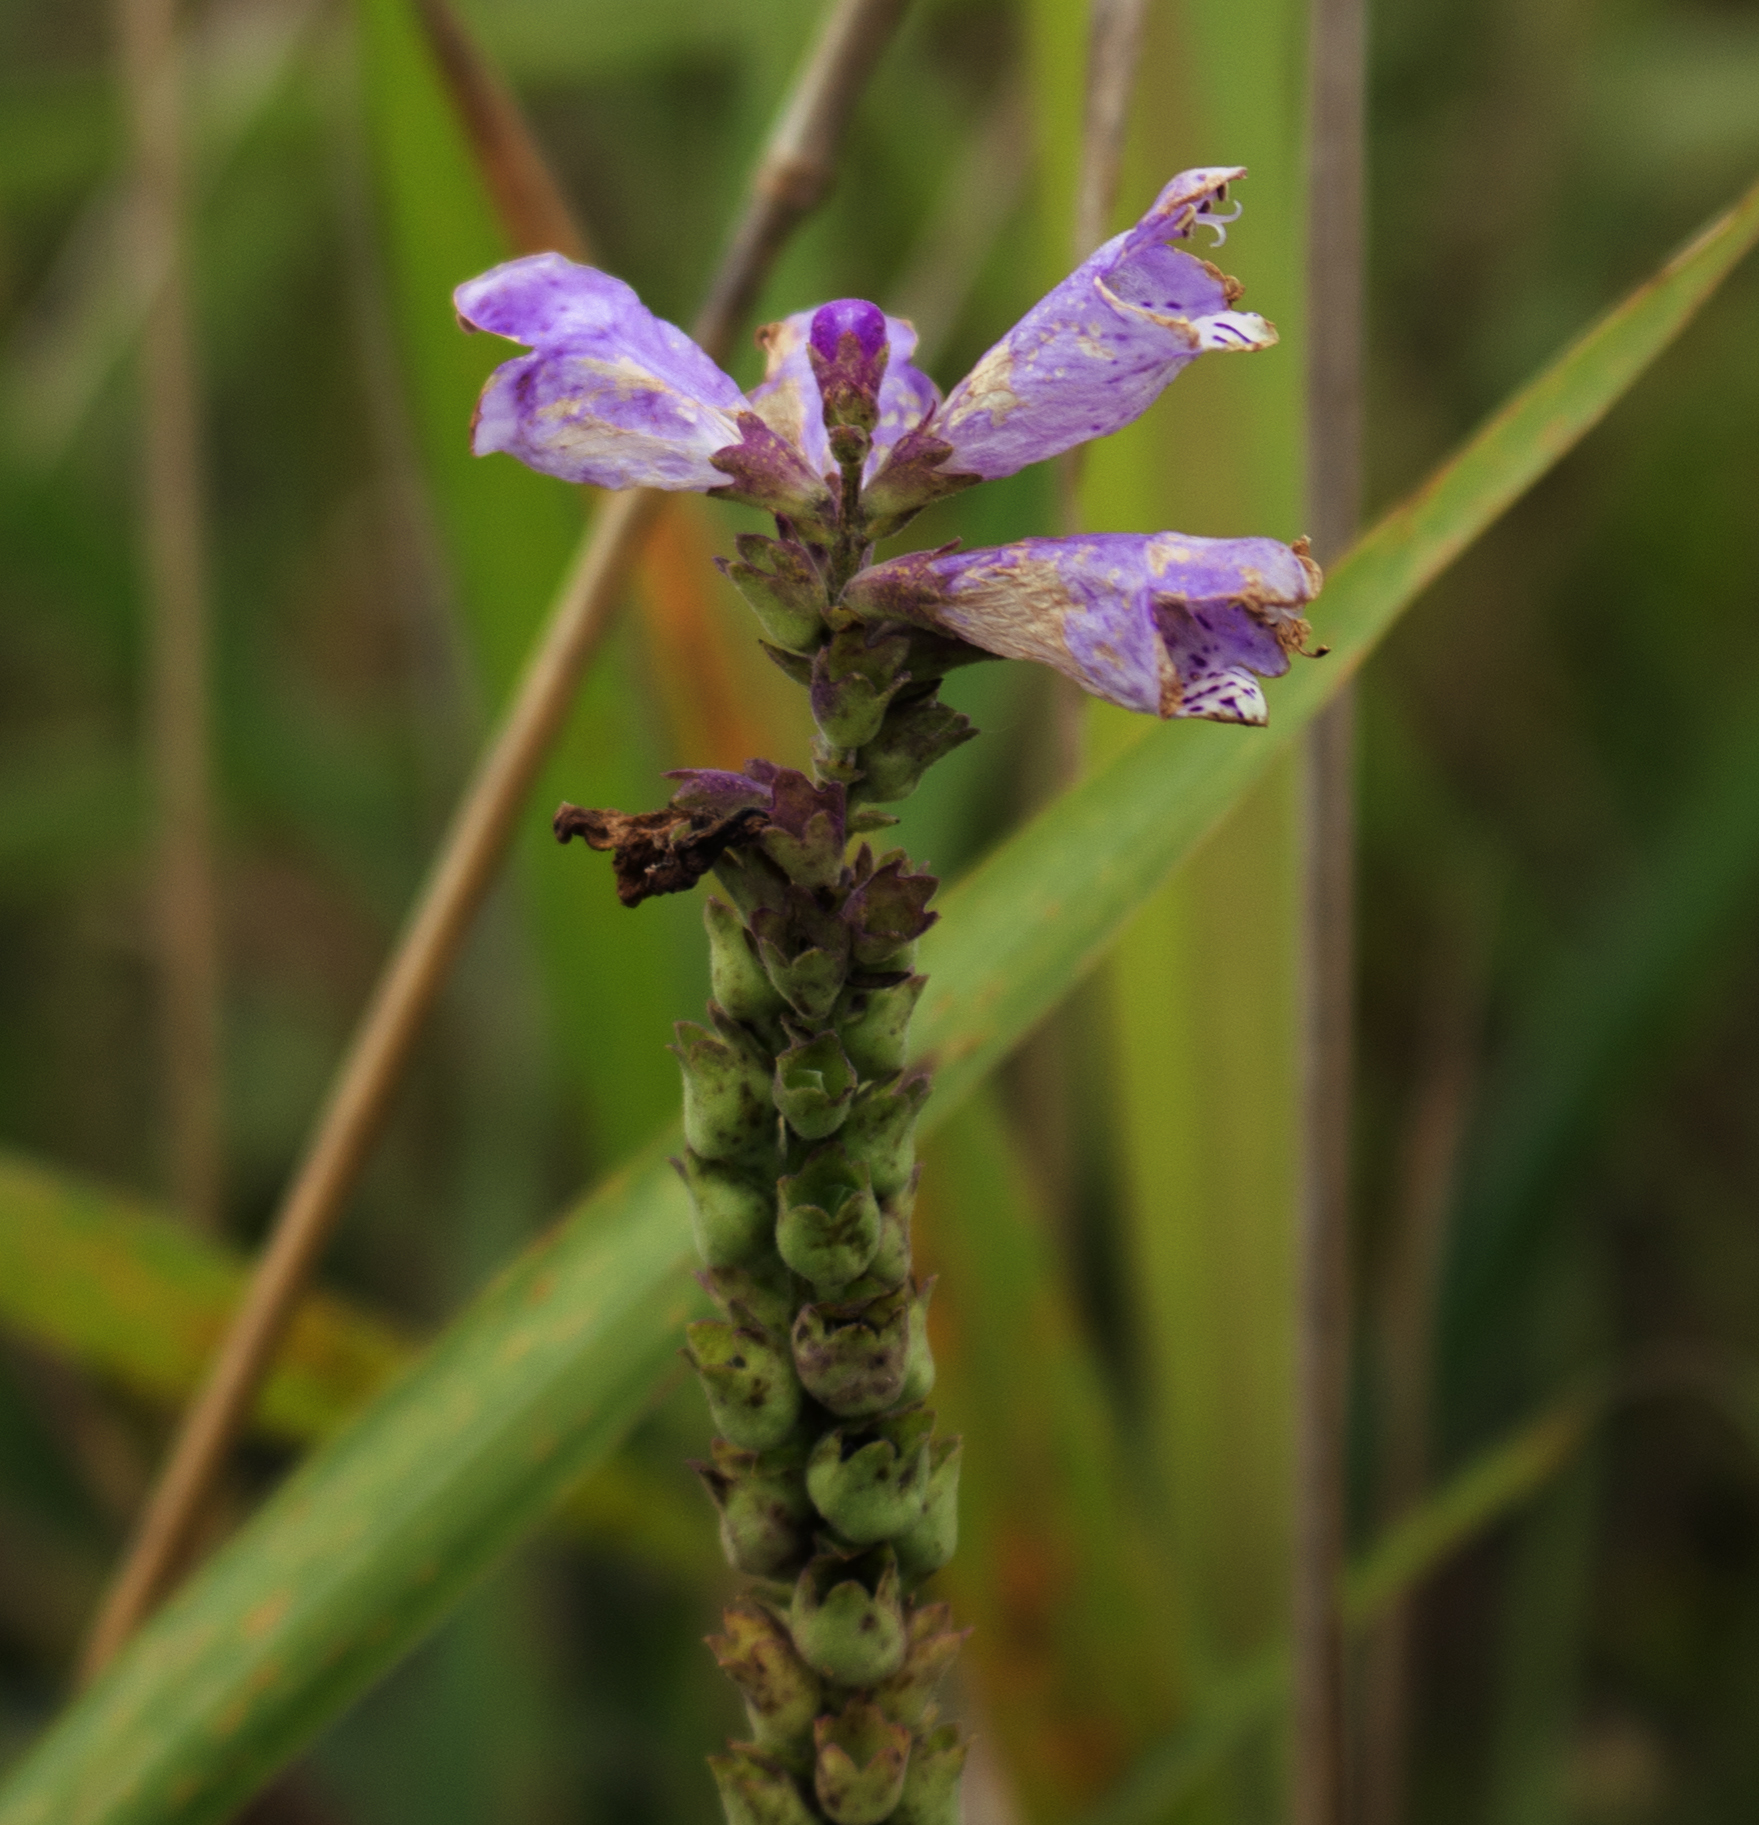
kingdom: Plantae
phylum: Tracheophyta
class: Magnoliopsida
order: Lamiales
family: Lamiaceae
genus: Physostegia
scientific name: Physostegia virginiana
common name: Obedient-plant
